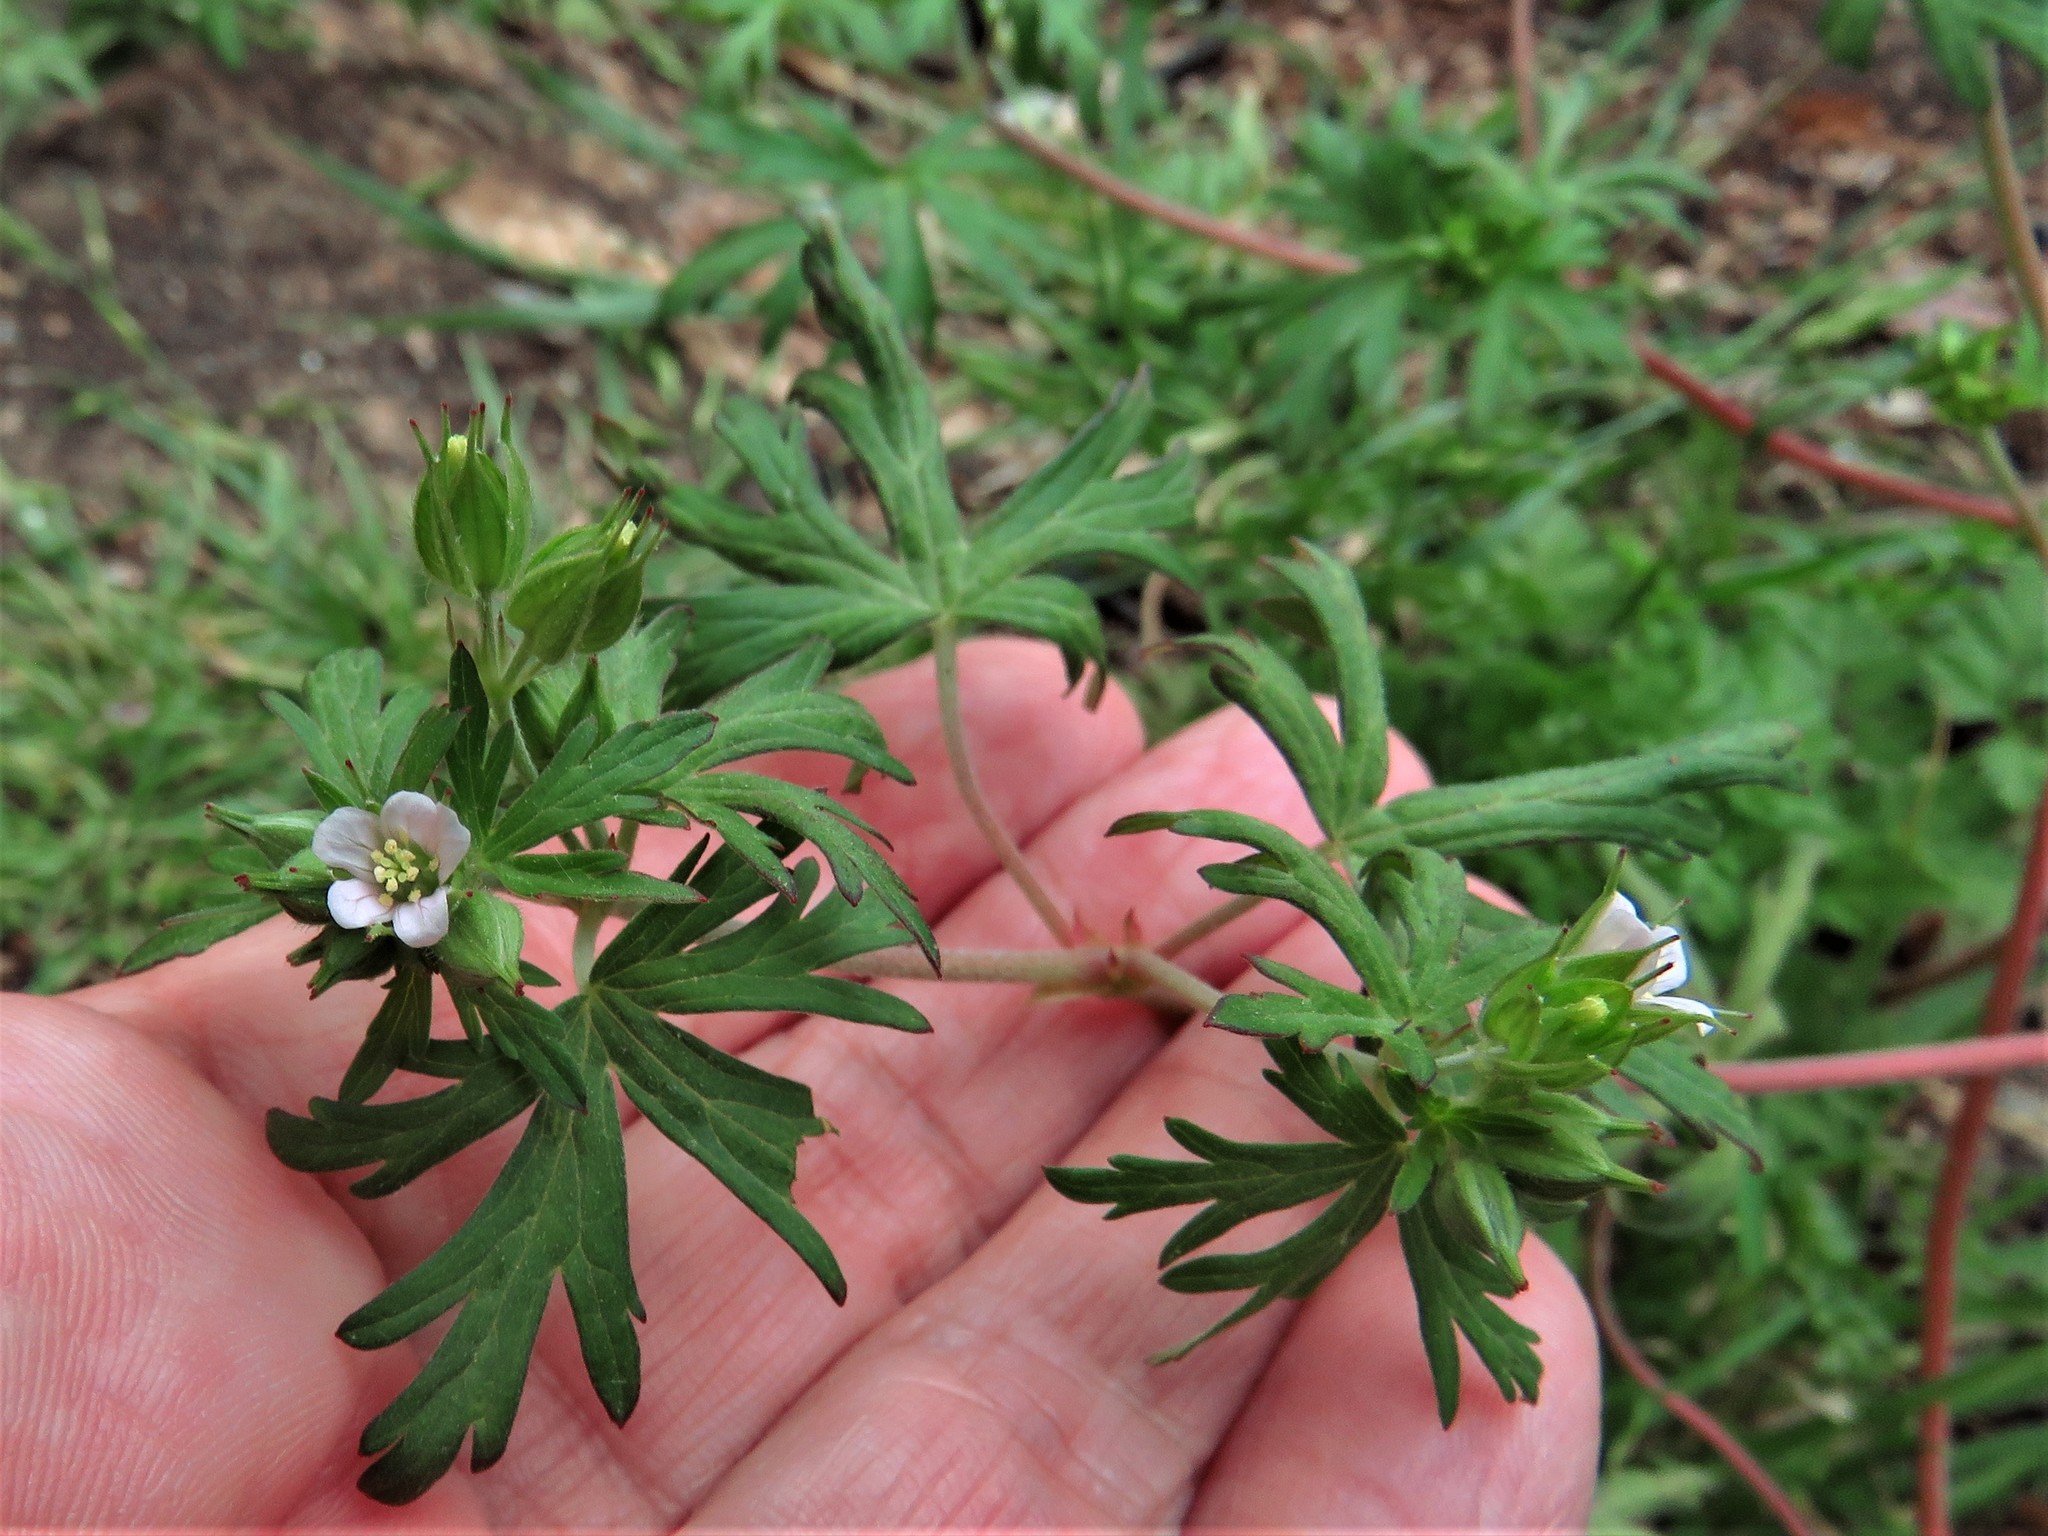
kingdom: Plantae
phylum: Tracheophyta
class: Magnoliopsida
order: Geraniales
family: Geraniaceae
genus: Geranium
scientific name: Geranium carolinianum
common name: Carolina crane's-bill
